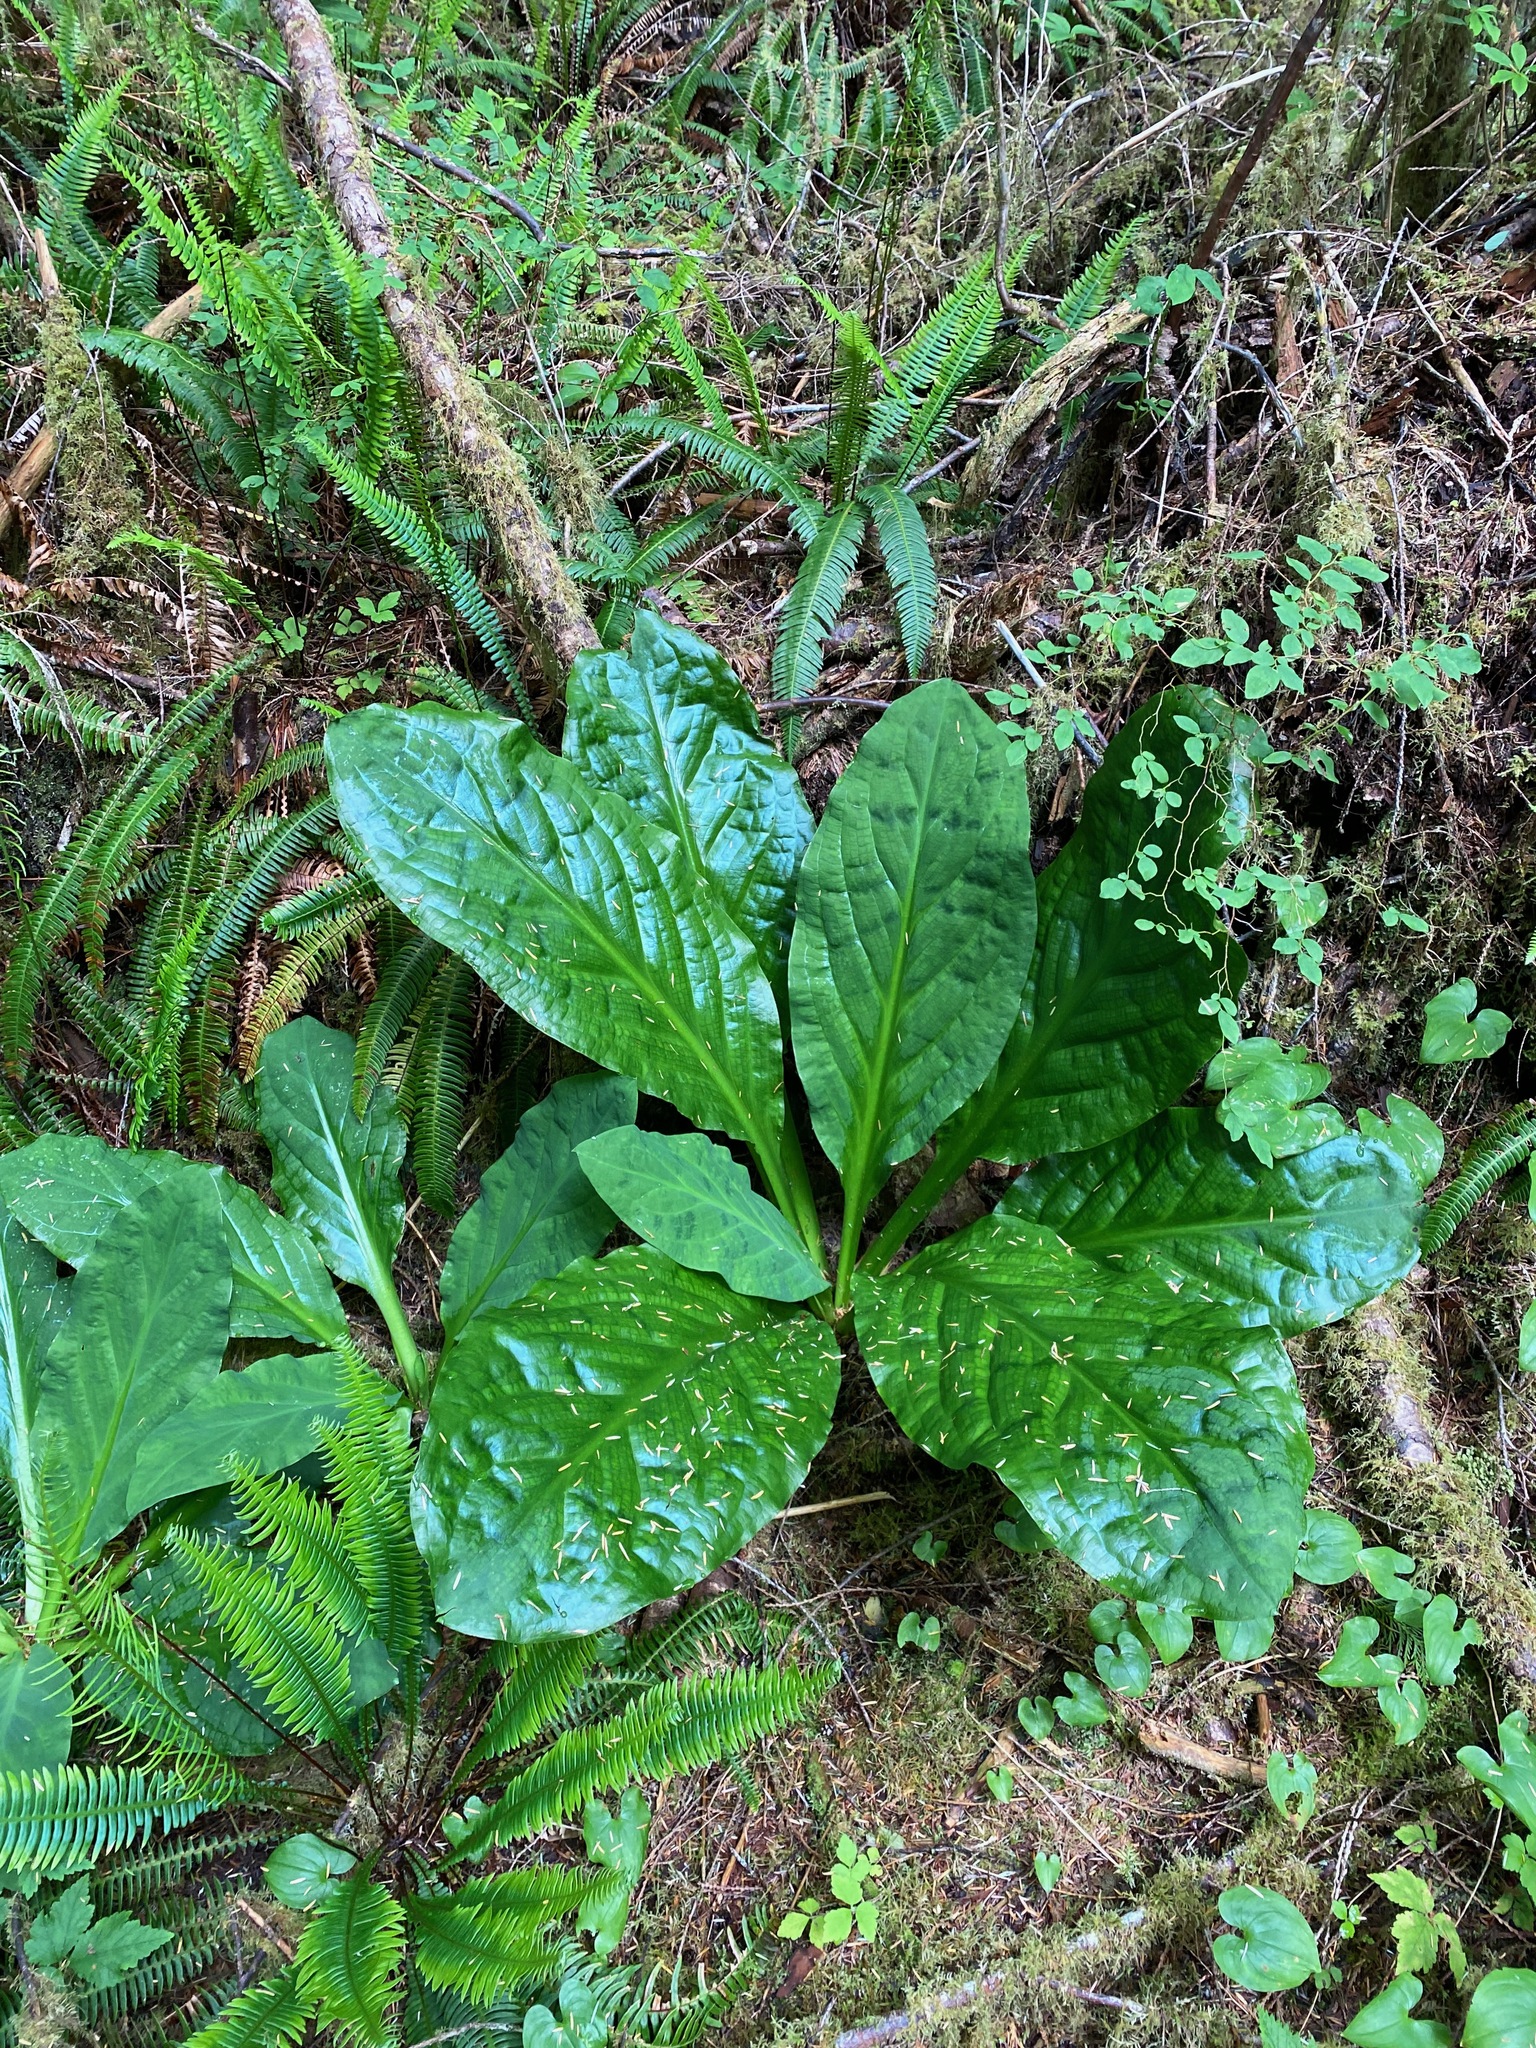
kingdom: Plantae
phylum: Tracheophyta
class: Liliopsida
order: Alismatales
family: Araceae
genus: Lysichiton
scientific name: Lysichiton americanus
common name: American skunk cabbage
